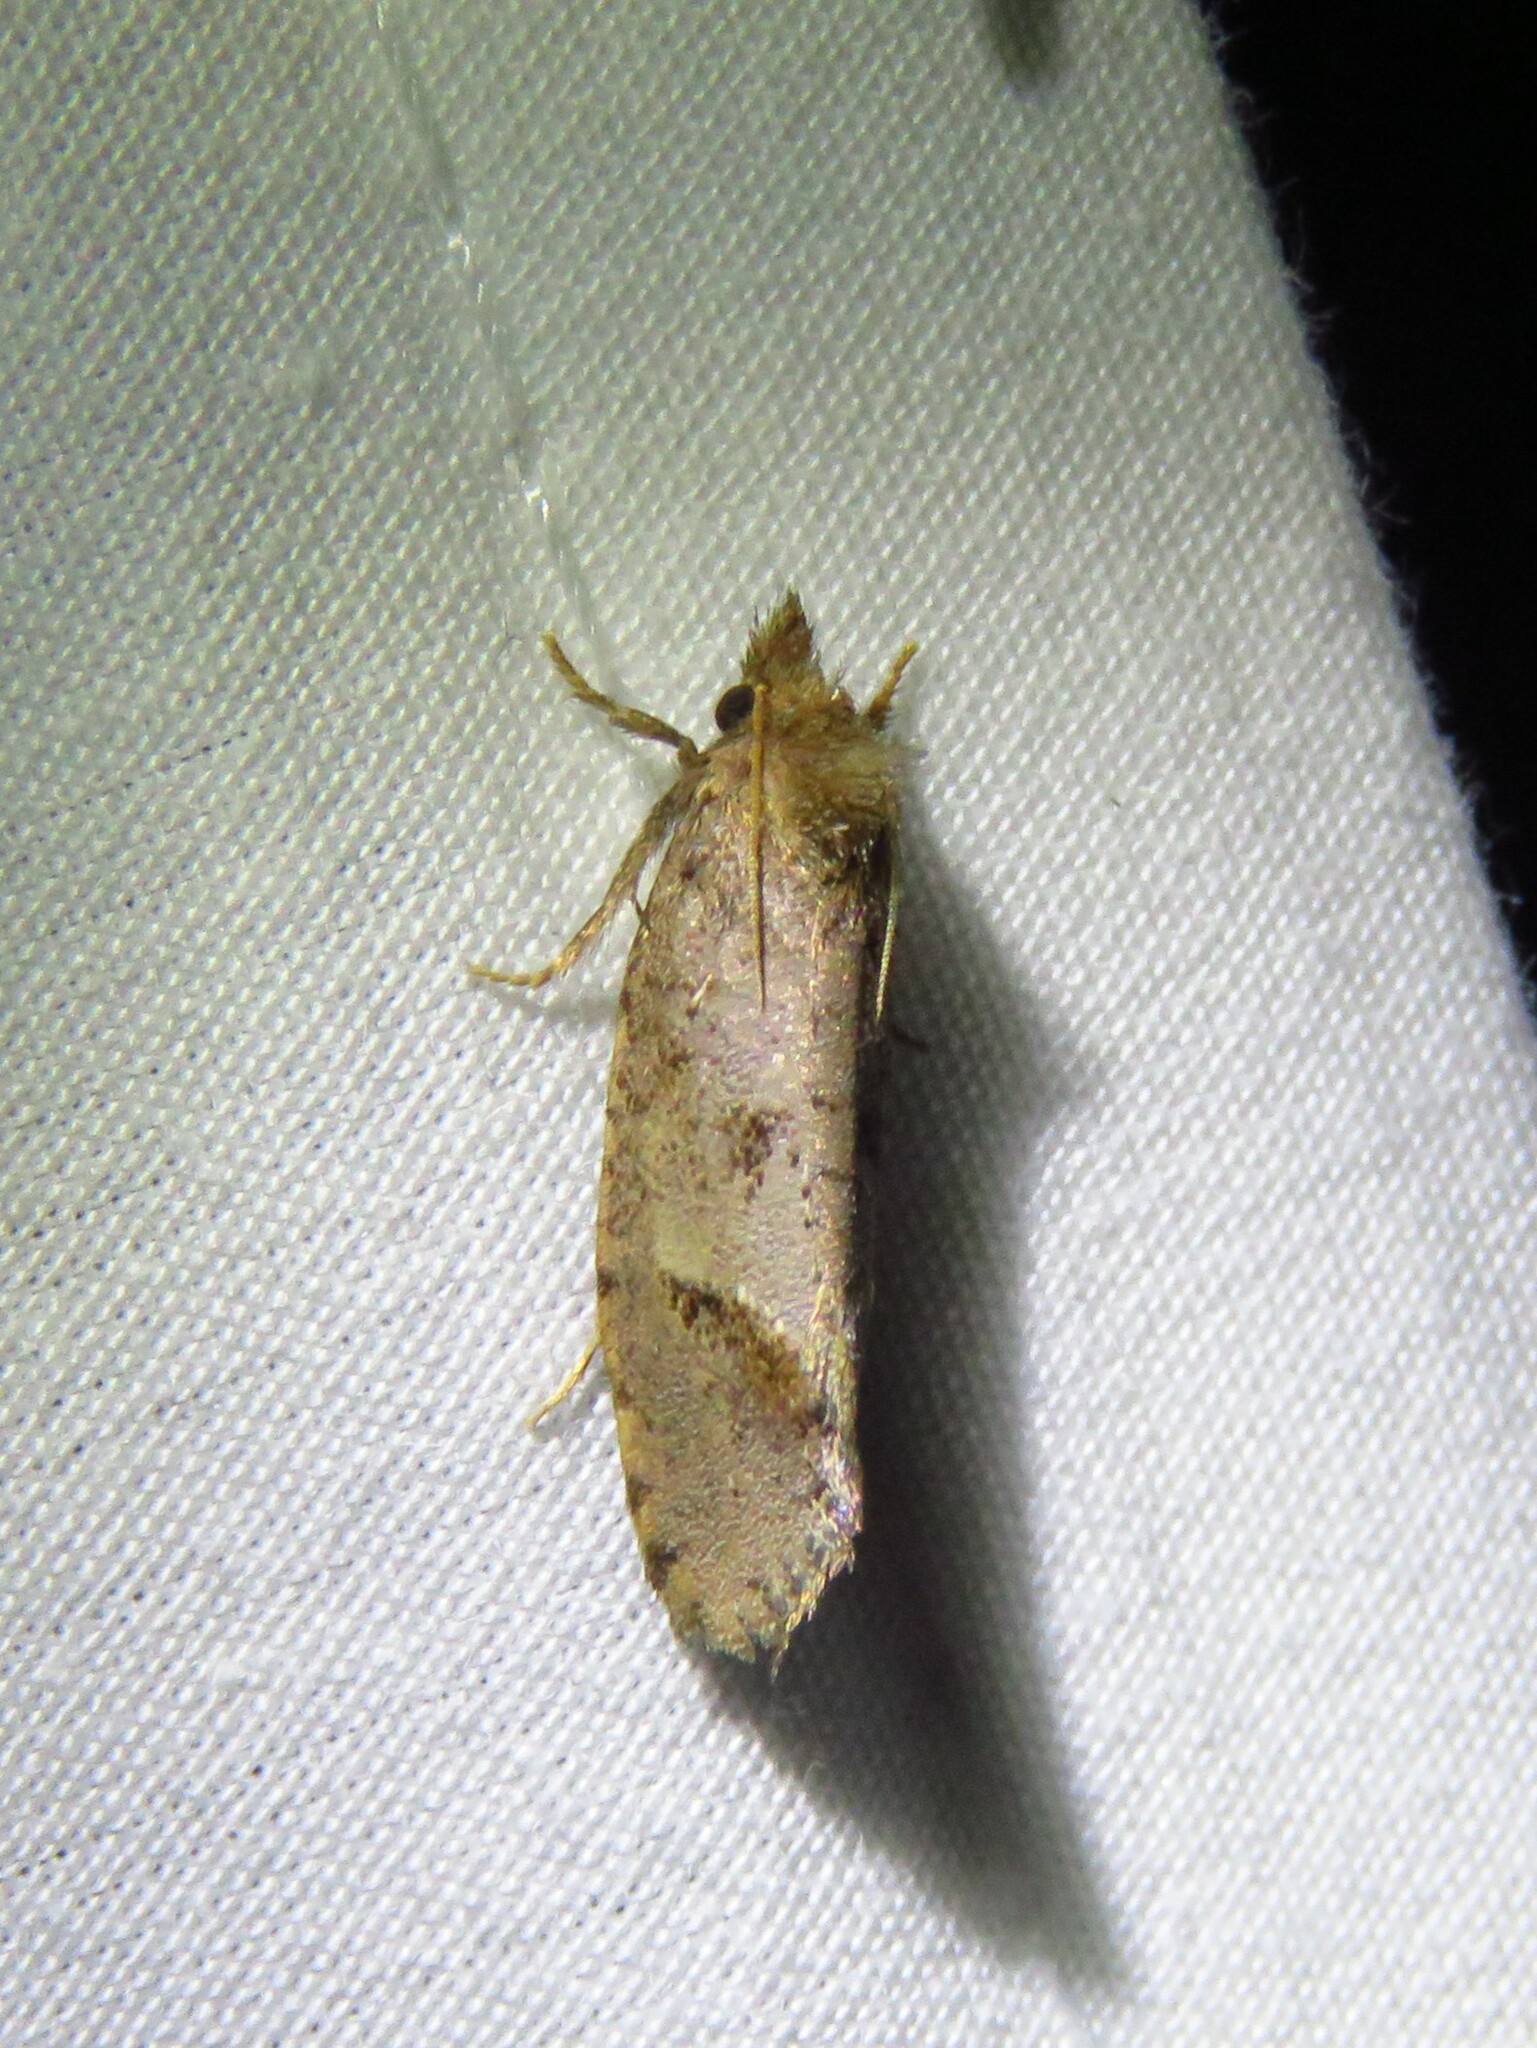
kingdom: Animalia
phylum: Arthropoda
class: Insecta
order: Lepidoptera
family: Tineidae
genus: Acrolophus
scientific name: Acrolophus texanella
